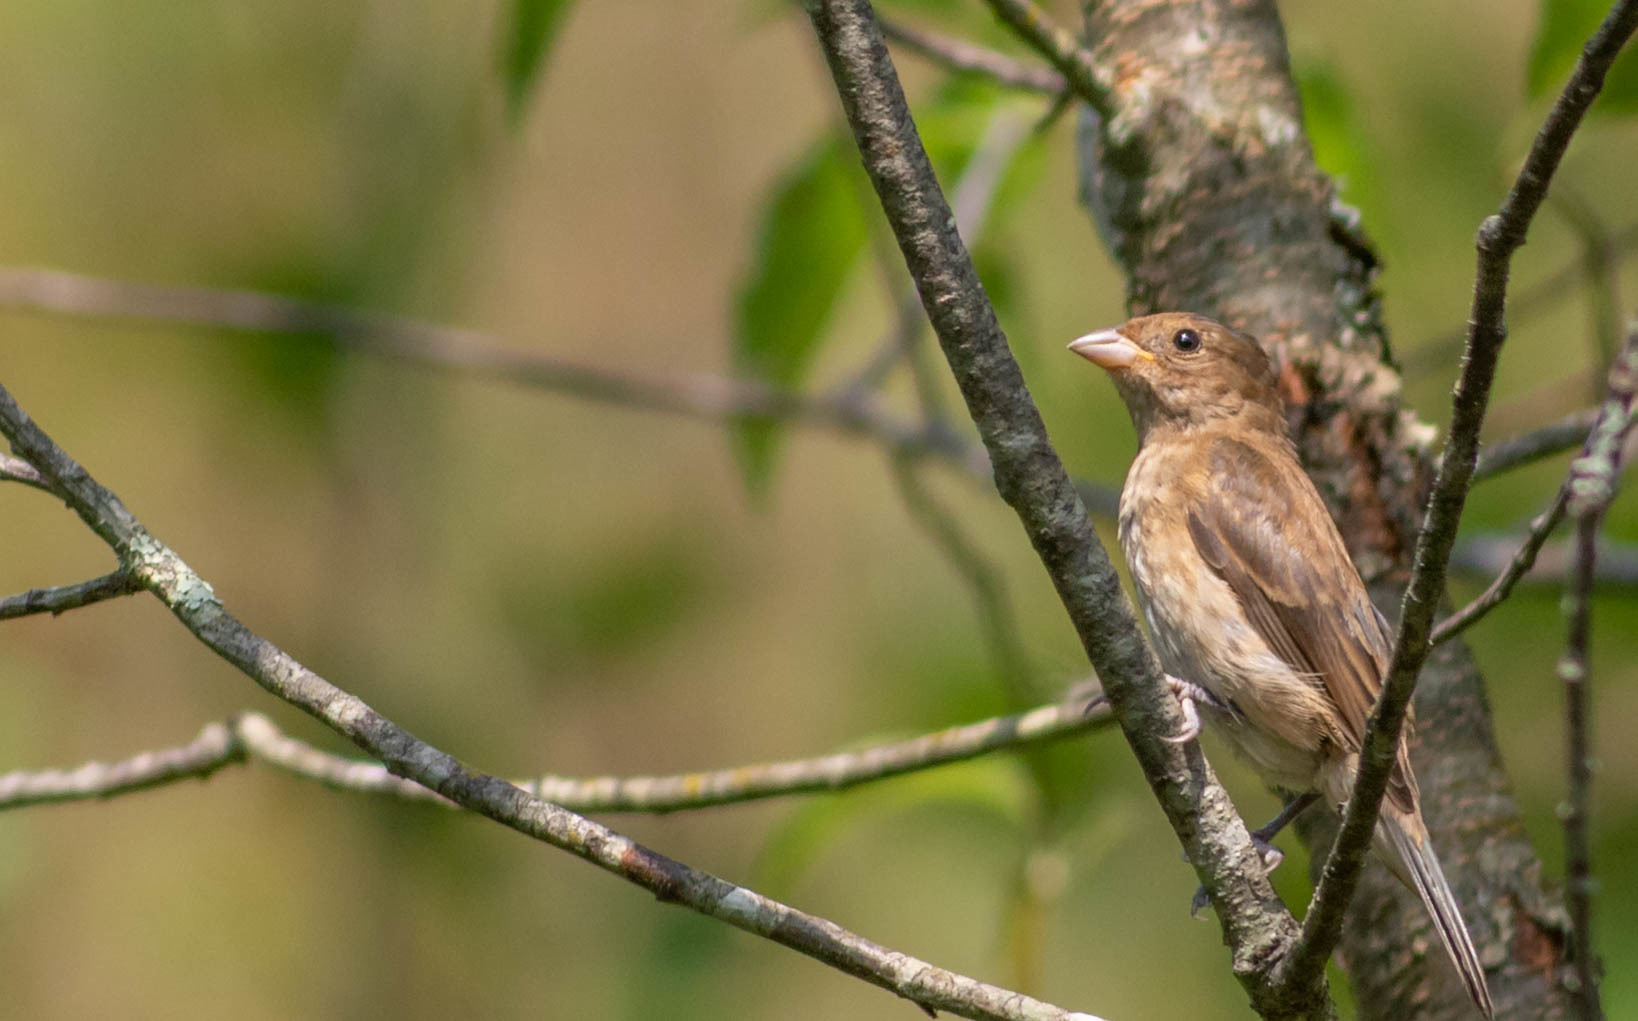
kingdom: Animalia
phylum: Chordata
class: Aves
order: Passeriformes
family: Cardinalidae
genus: Passerina
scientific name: Passerina cyanea
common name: Indigo bunting
